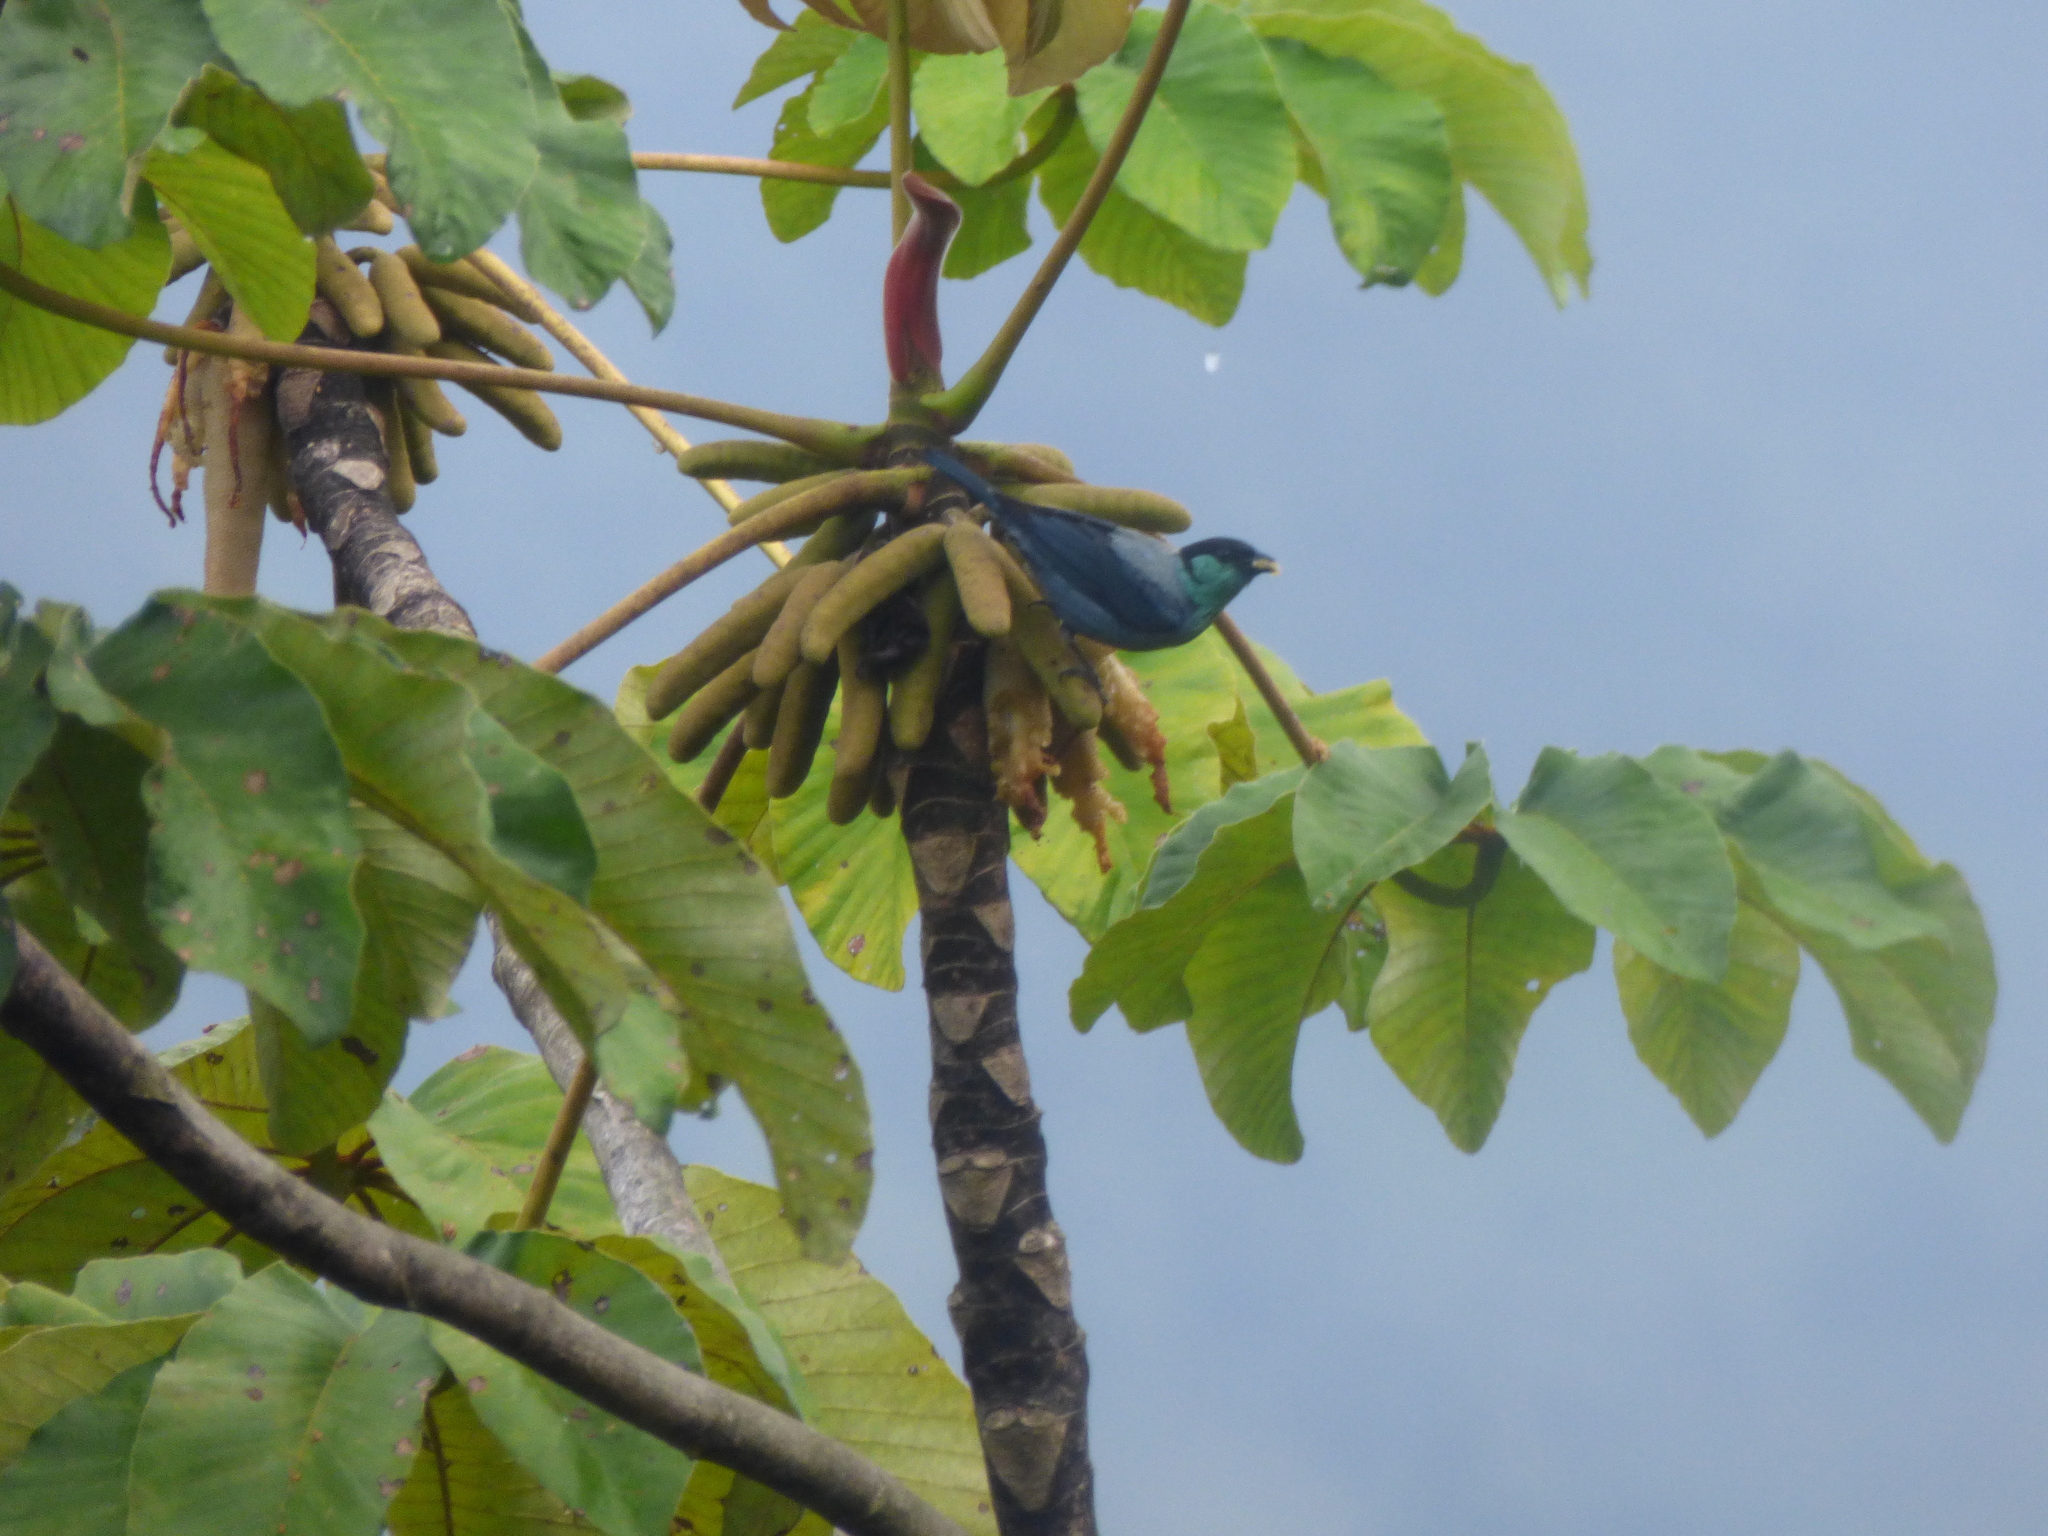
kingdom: Animalia
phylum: Chordata
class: Aves
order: Passeriformes
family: Thraupidae
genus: Stilpnia
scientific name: Stilpnia heinei
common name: Black-capped tanager
